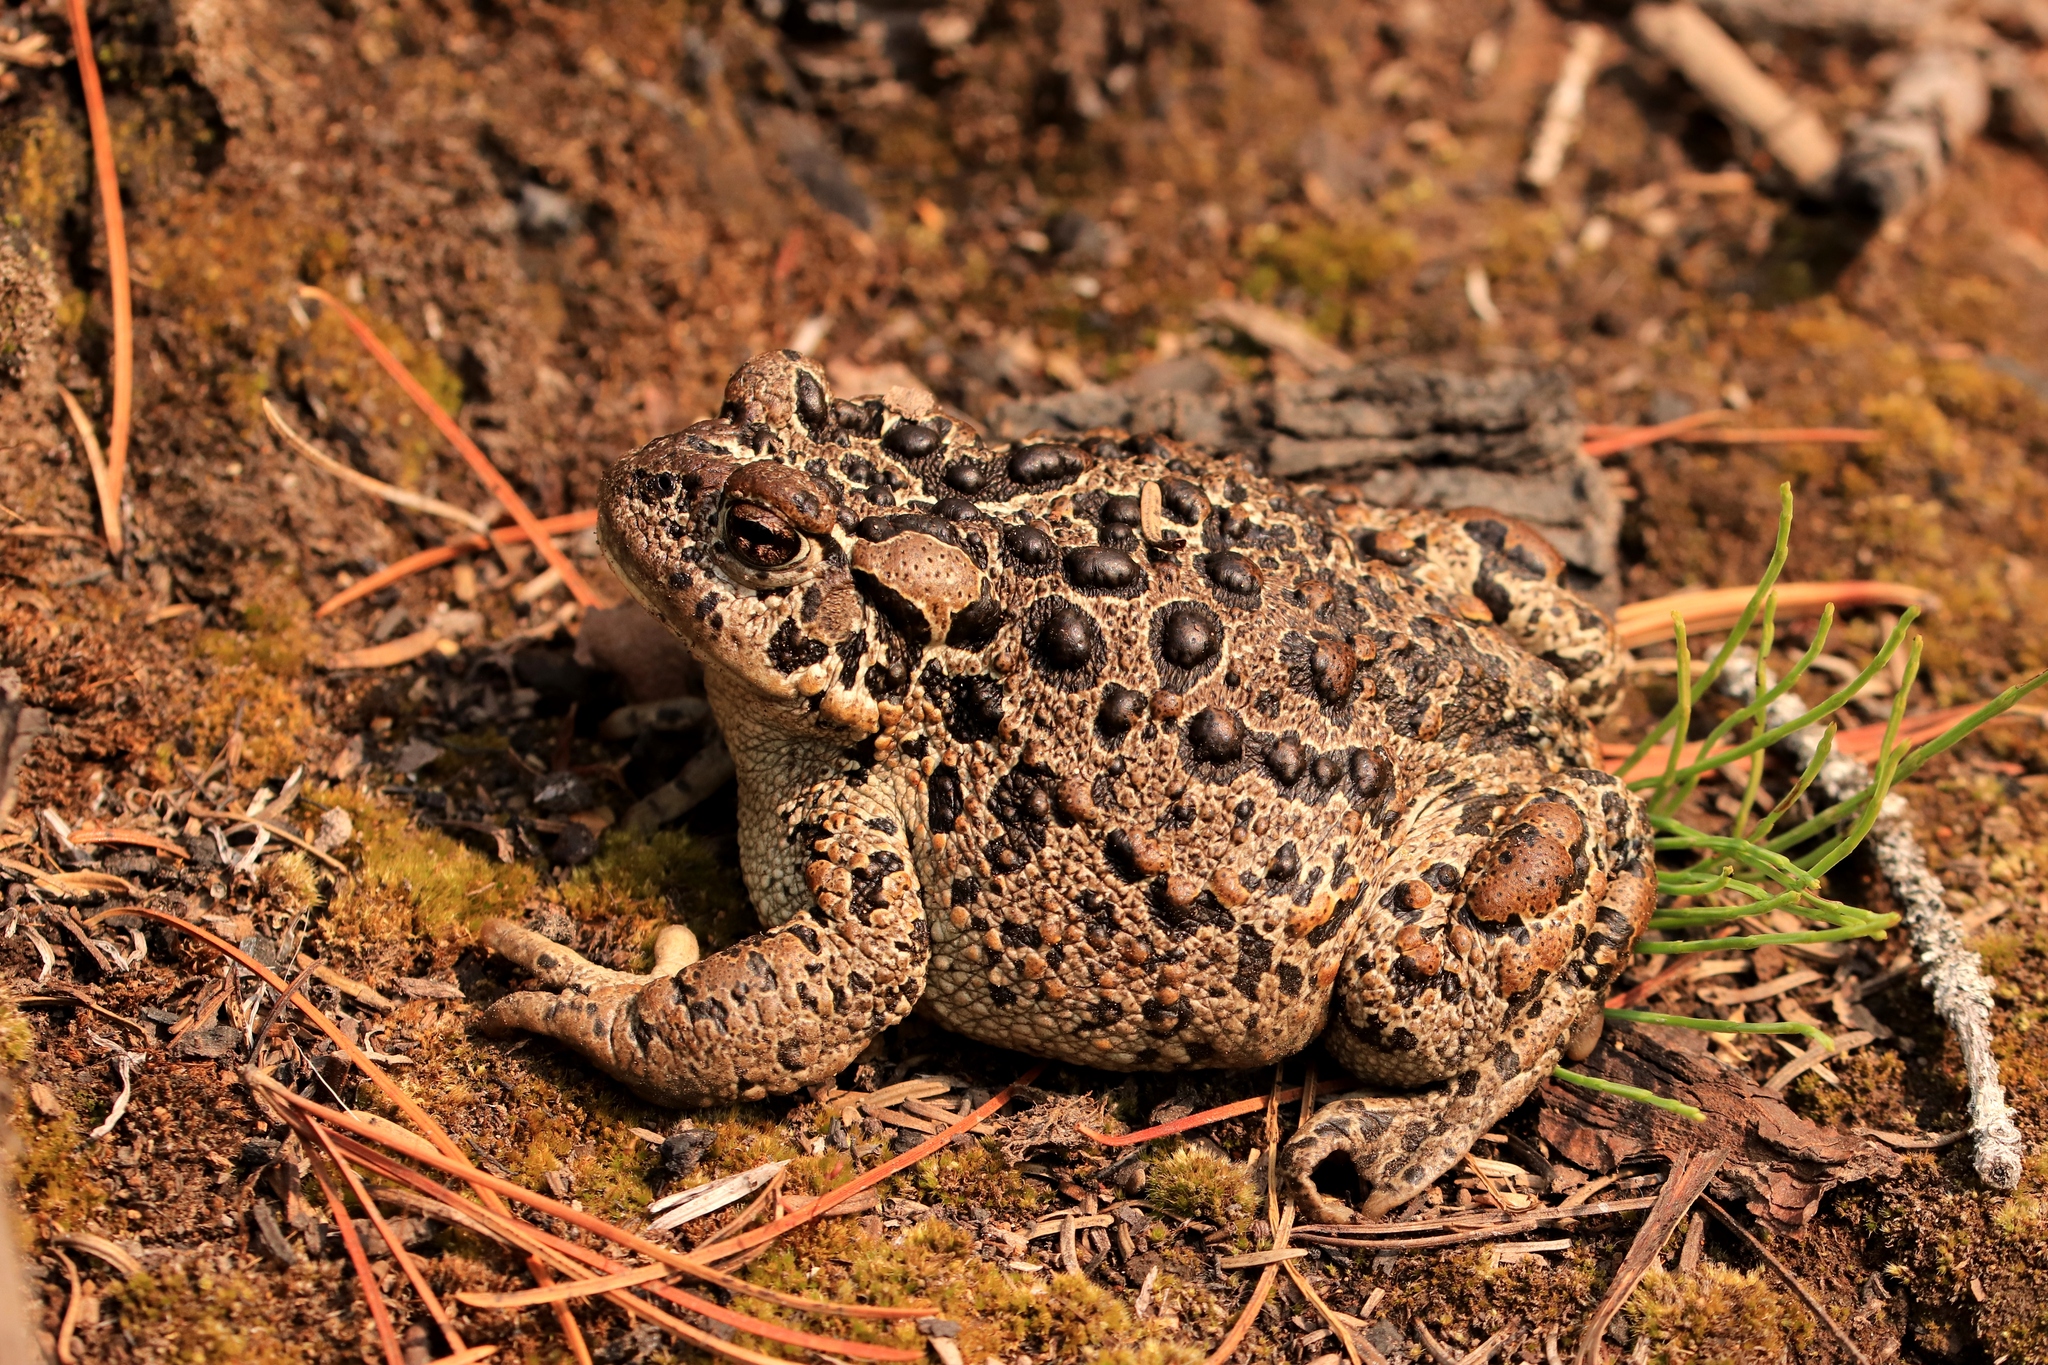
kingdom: Animalia
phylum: Chordata
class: Amphibia
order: Anura
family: Bufonidae
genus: Anaxyrus
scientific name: Anaxyrus boreas
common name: Western toad
